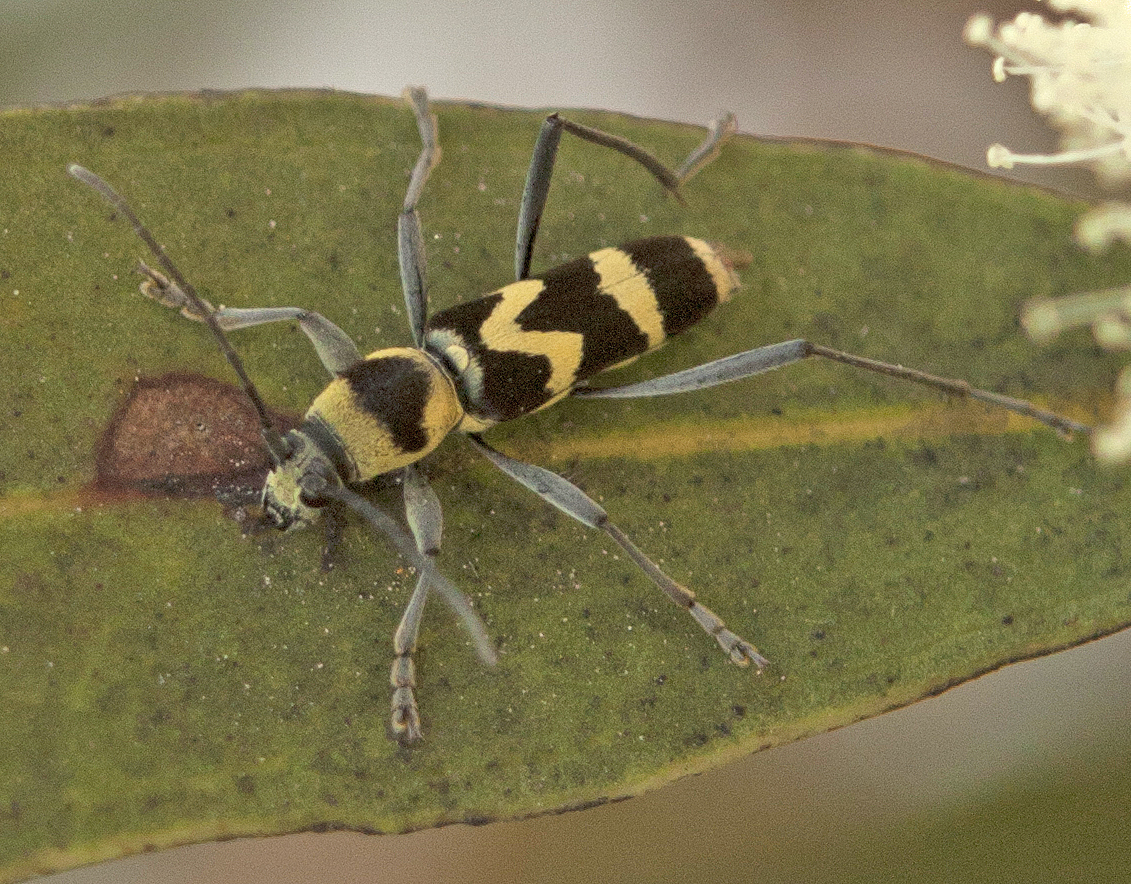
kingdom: Animalia
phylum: Arthropoda
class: Insecta
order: Coleoptera
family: Cerambycidae
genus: Clytus
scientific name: Clytus curtisi
